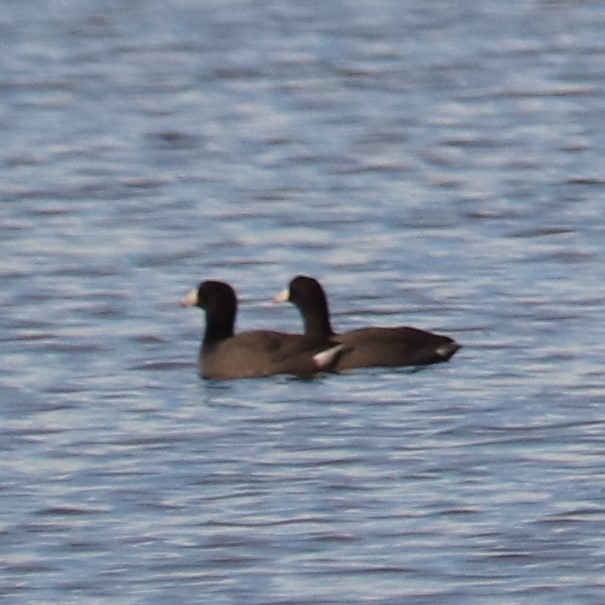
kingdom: Animalia
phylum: Chordata
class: Aves
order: Gruiformes
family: Rallidae
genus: Fulica
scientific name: Fulica americana
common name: American coot
